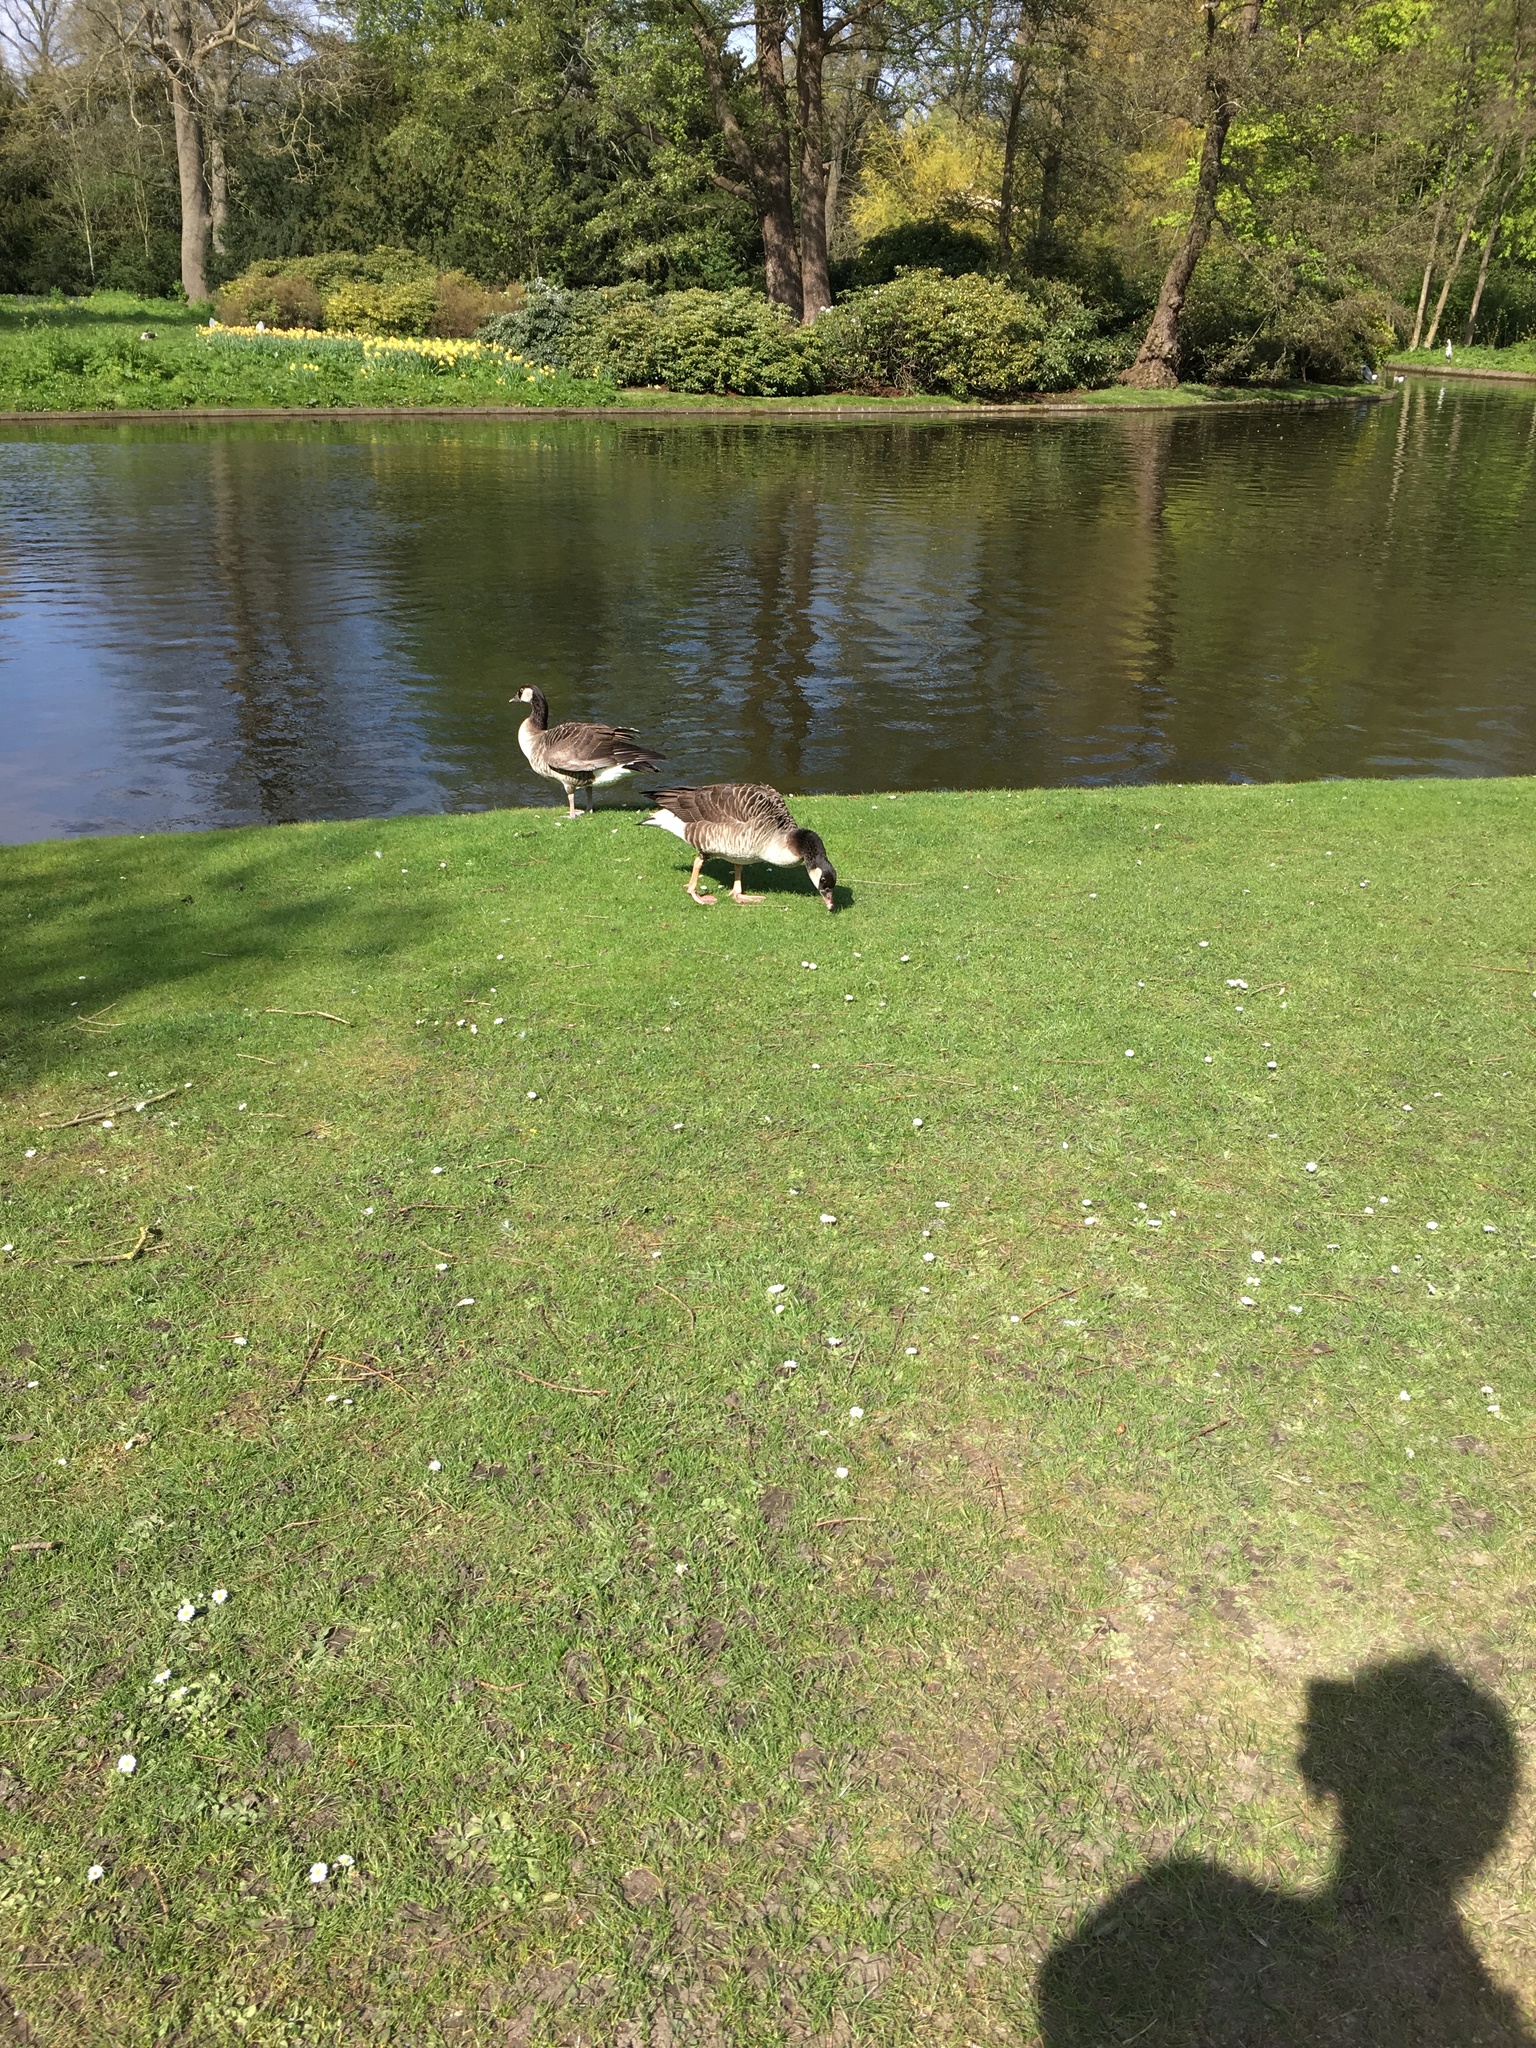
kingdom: Animalia
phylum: Chordata
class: Aves
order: Anseriformes
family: Anatidae
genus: Branta
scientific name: Branta canadensis
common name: Canada goose
